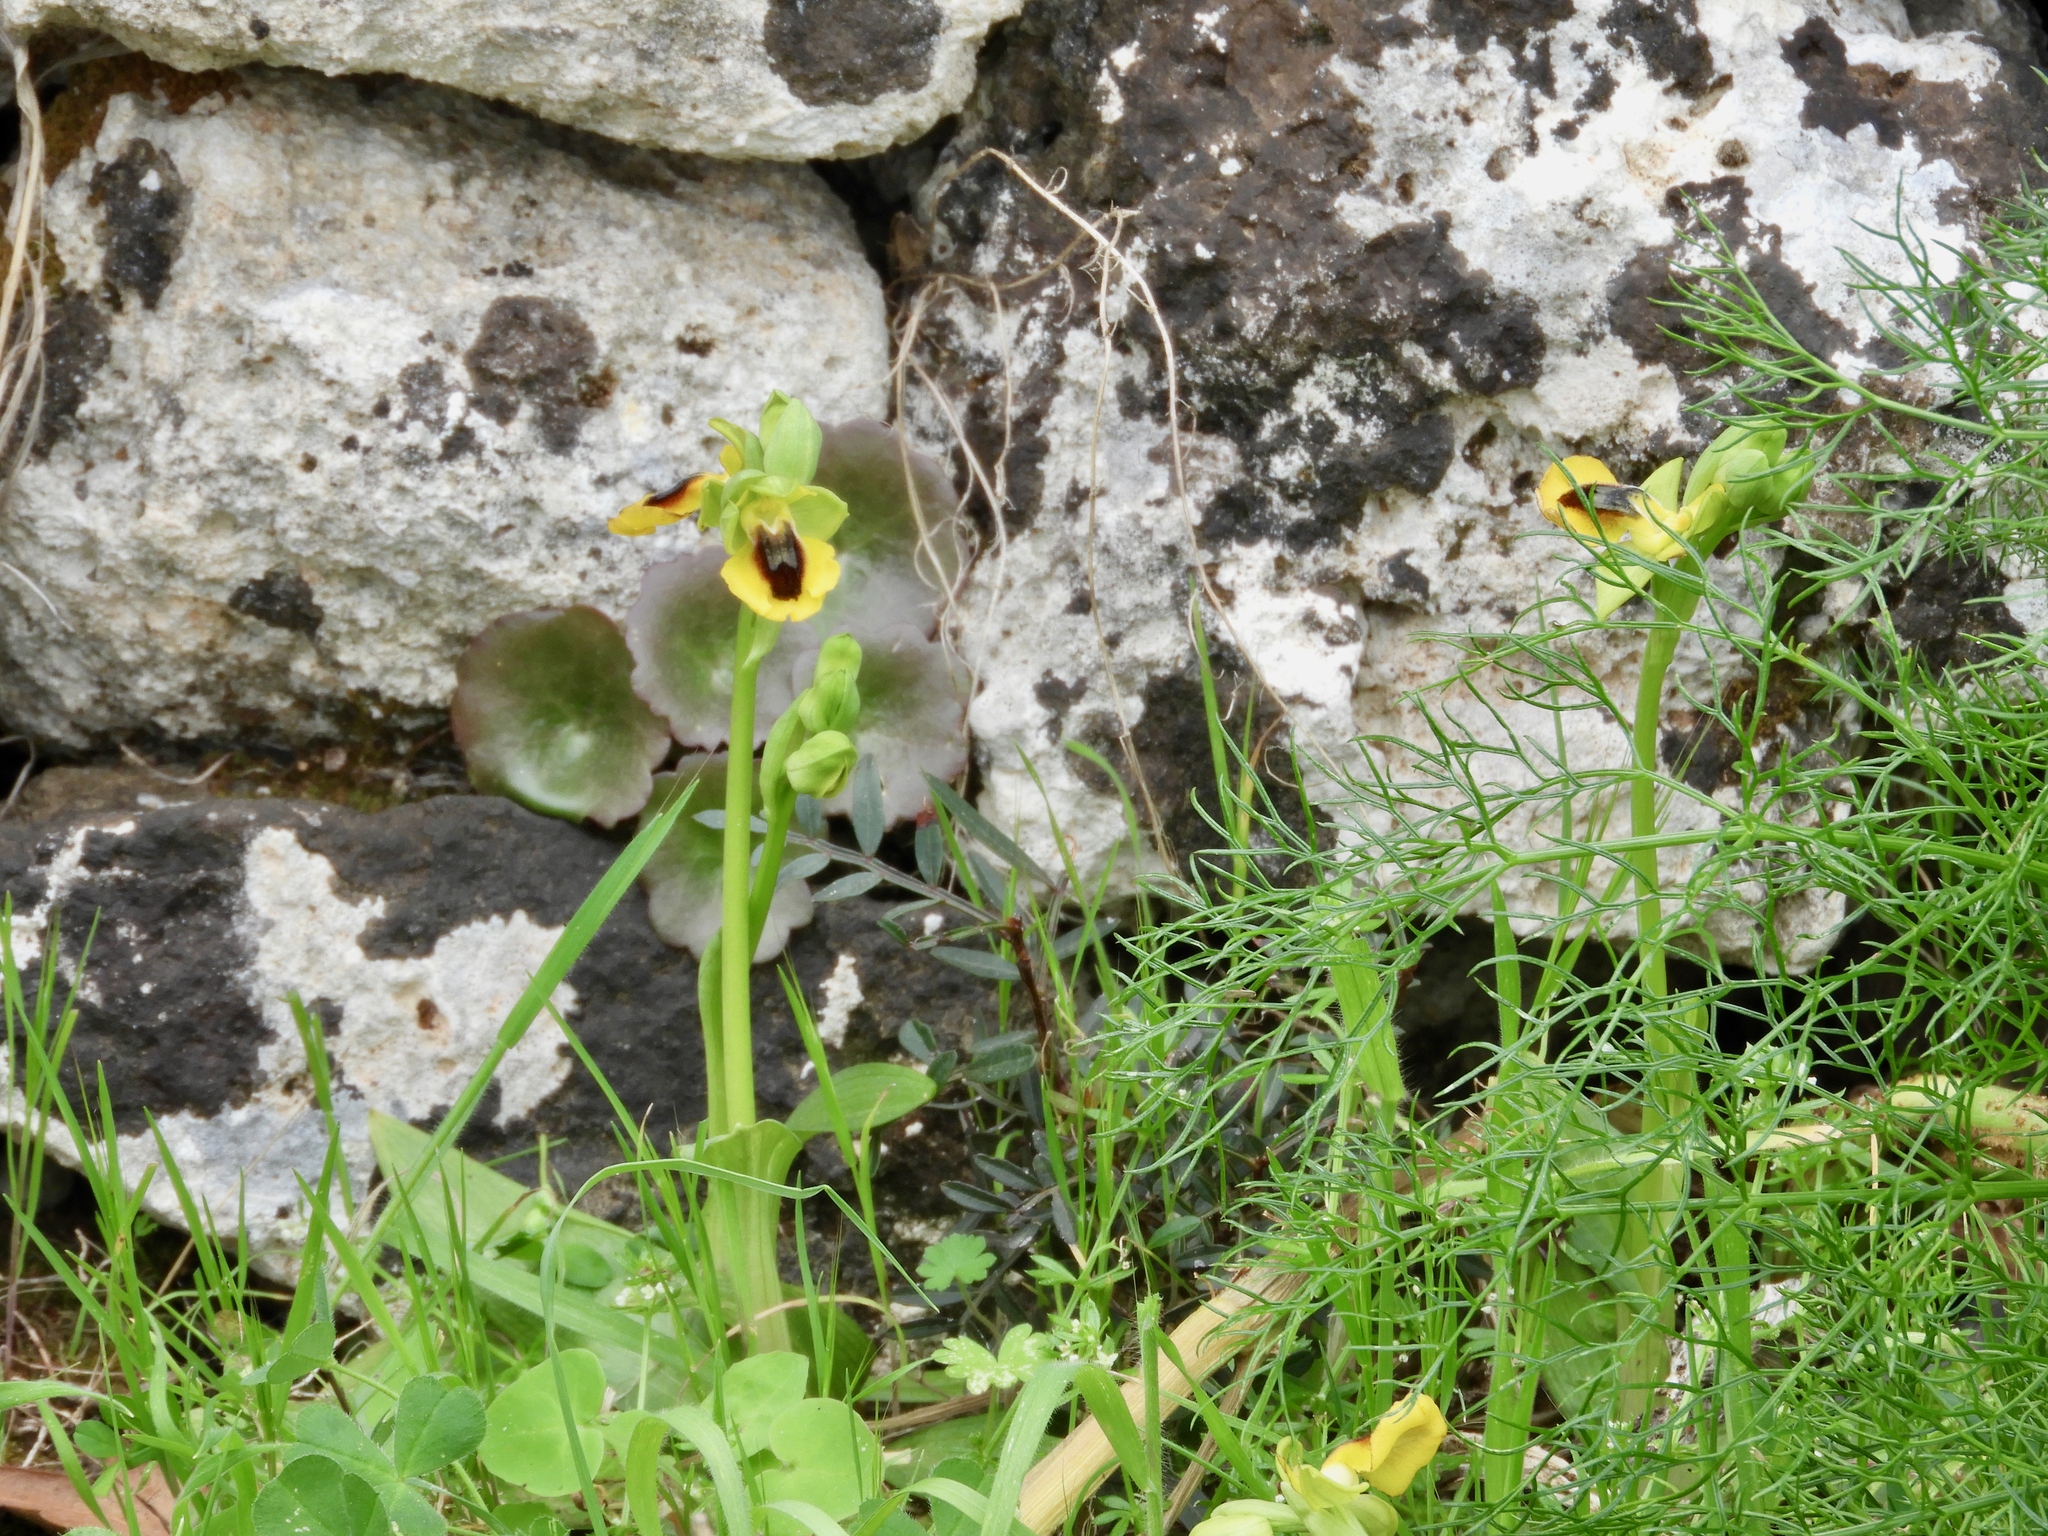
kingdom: Plantae
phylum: Tracheophyta
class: Liliopsida
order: Asparagales
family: Orchidaceae
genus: Ophrys
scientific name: Ophrys lutea
